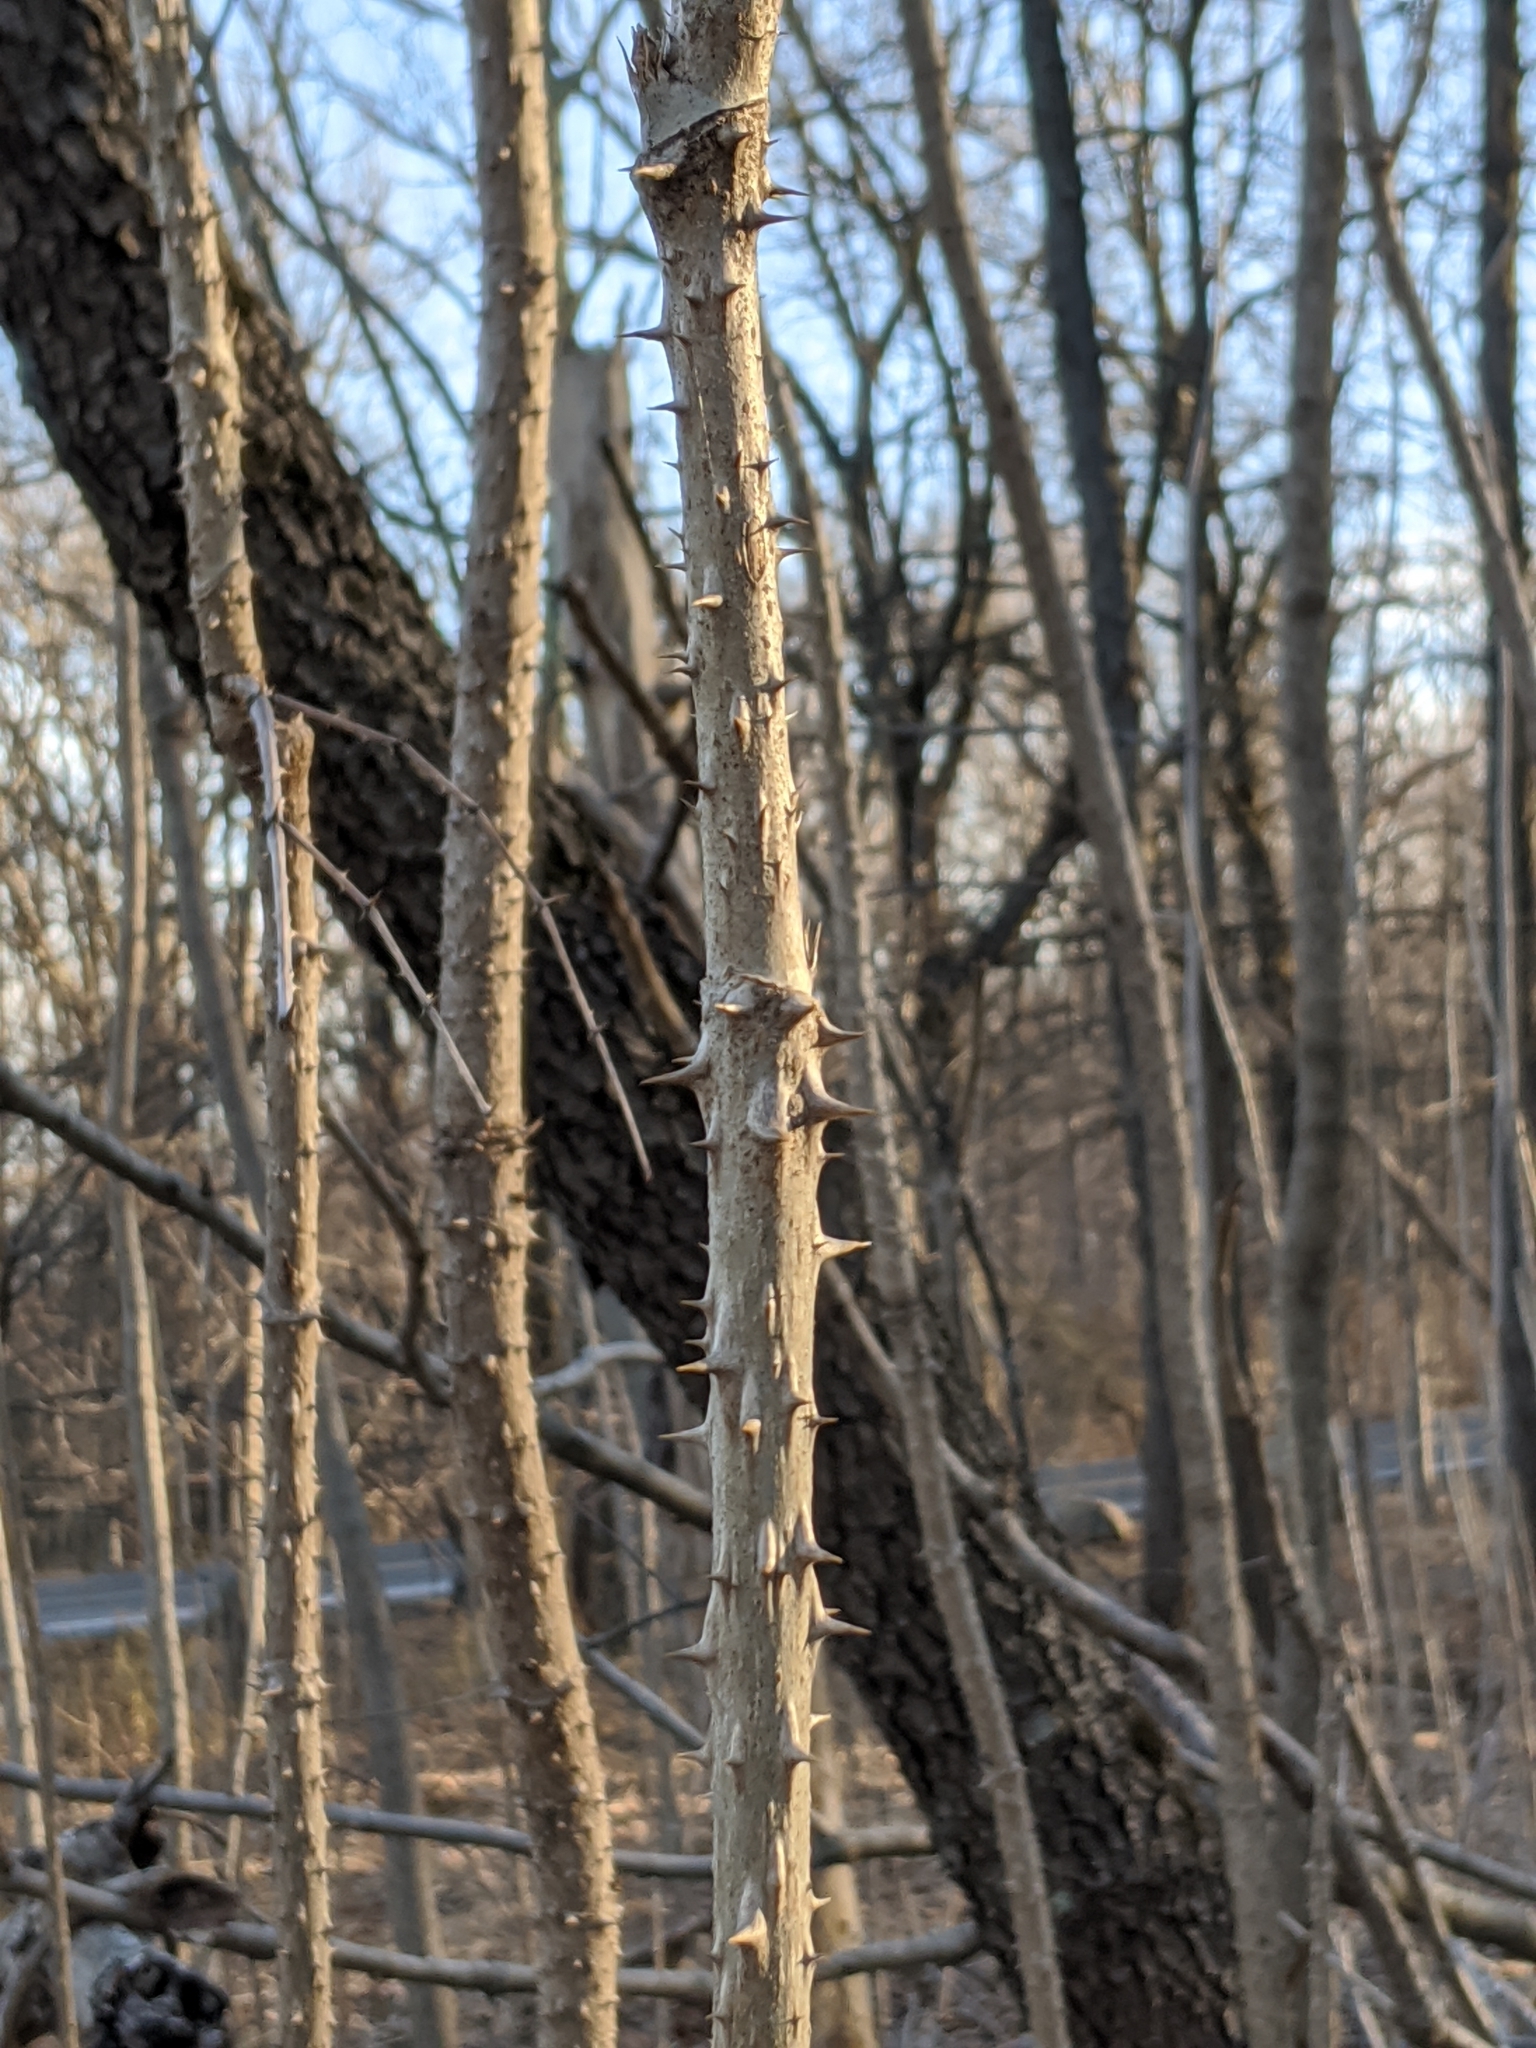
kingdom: Plantae
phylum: Tracheophyta
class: Magnoliopsida
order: Apiales
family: Araliaceae
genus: Aralia
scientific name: Aralia elata
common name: Japanese angelica-tree
